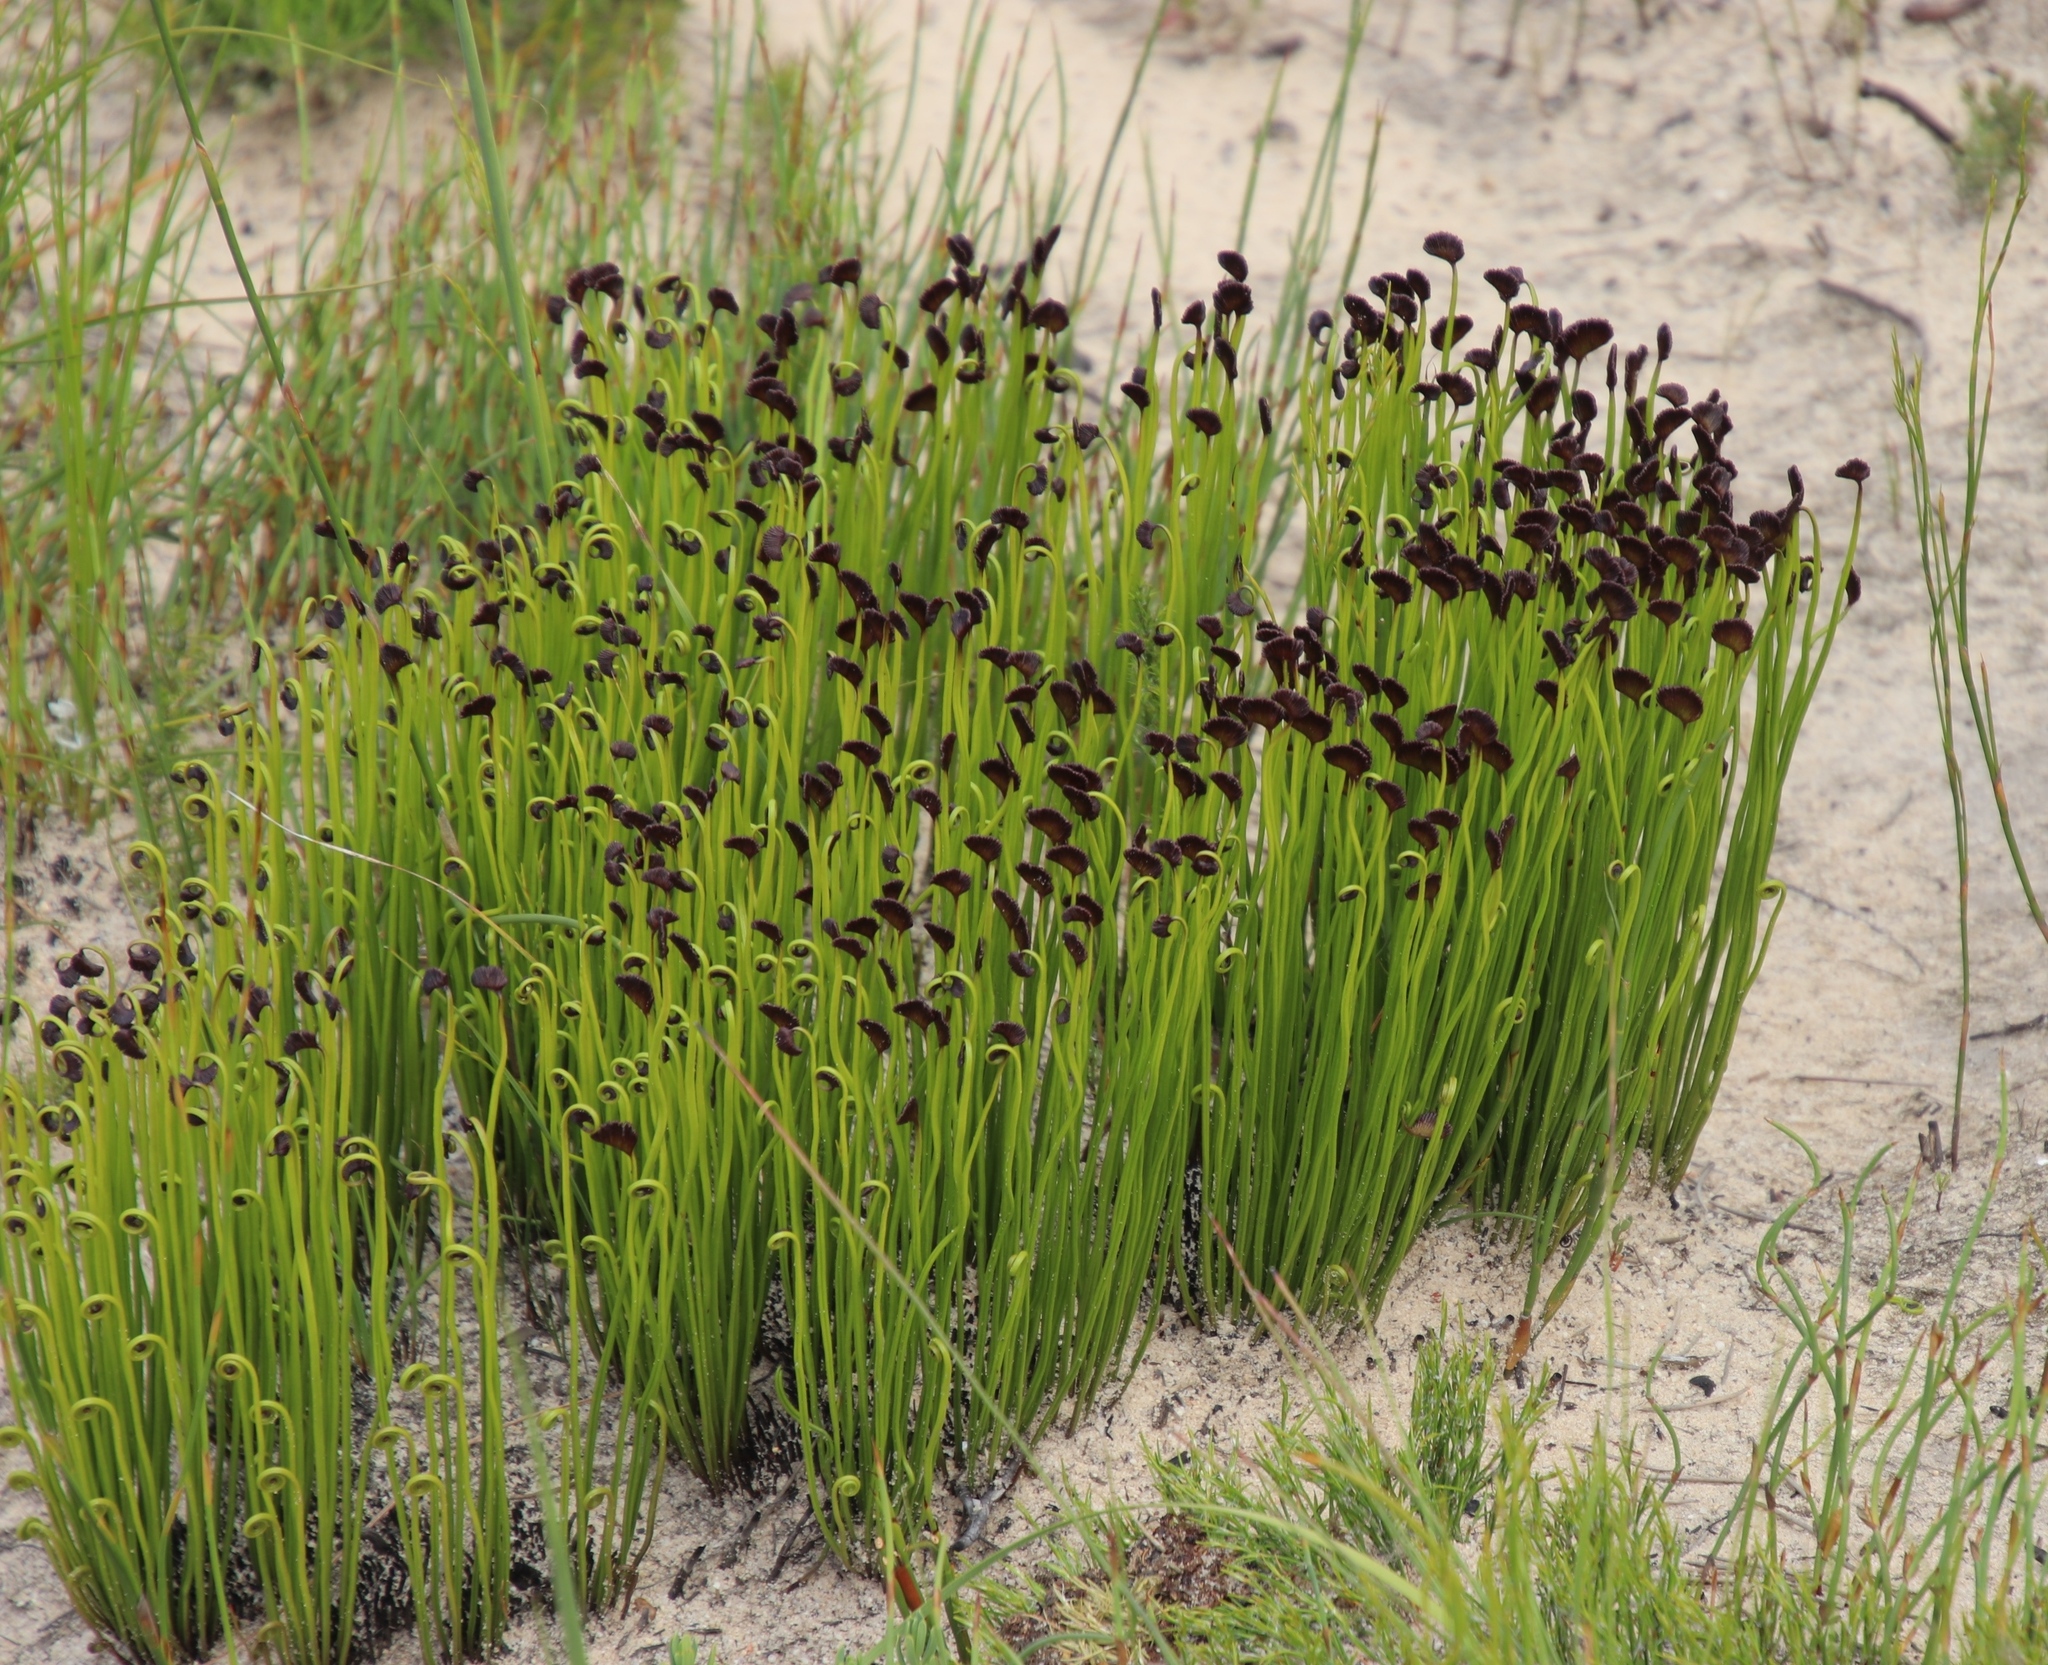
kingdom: Plantae
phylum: Tracheophyta
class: Polypodiopsida
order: Schizaeales
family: Schizaeaceae
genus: Schizaea
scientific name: Schizaea pectinata
